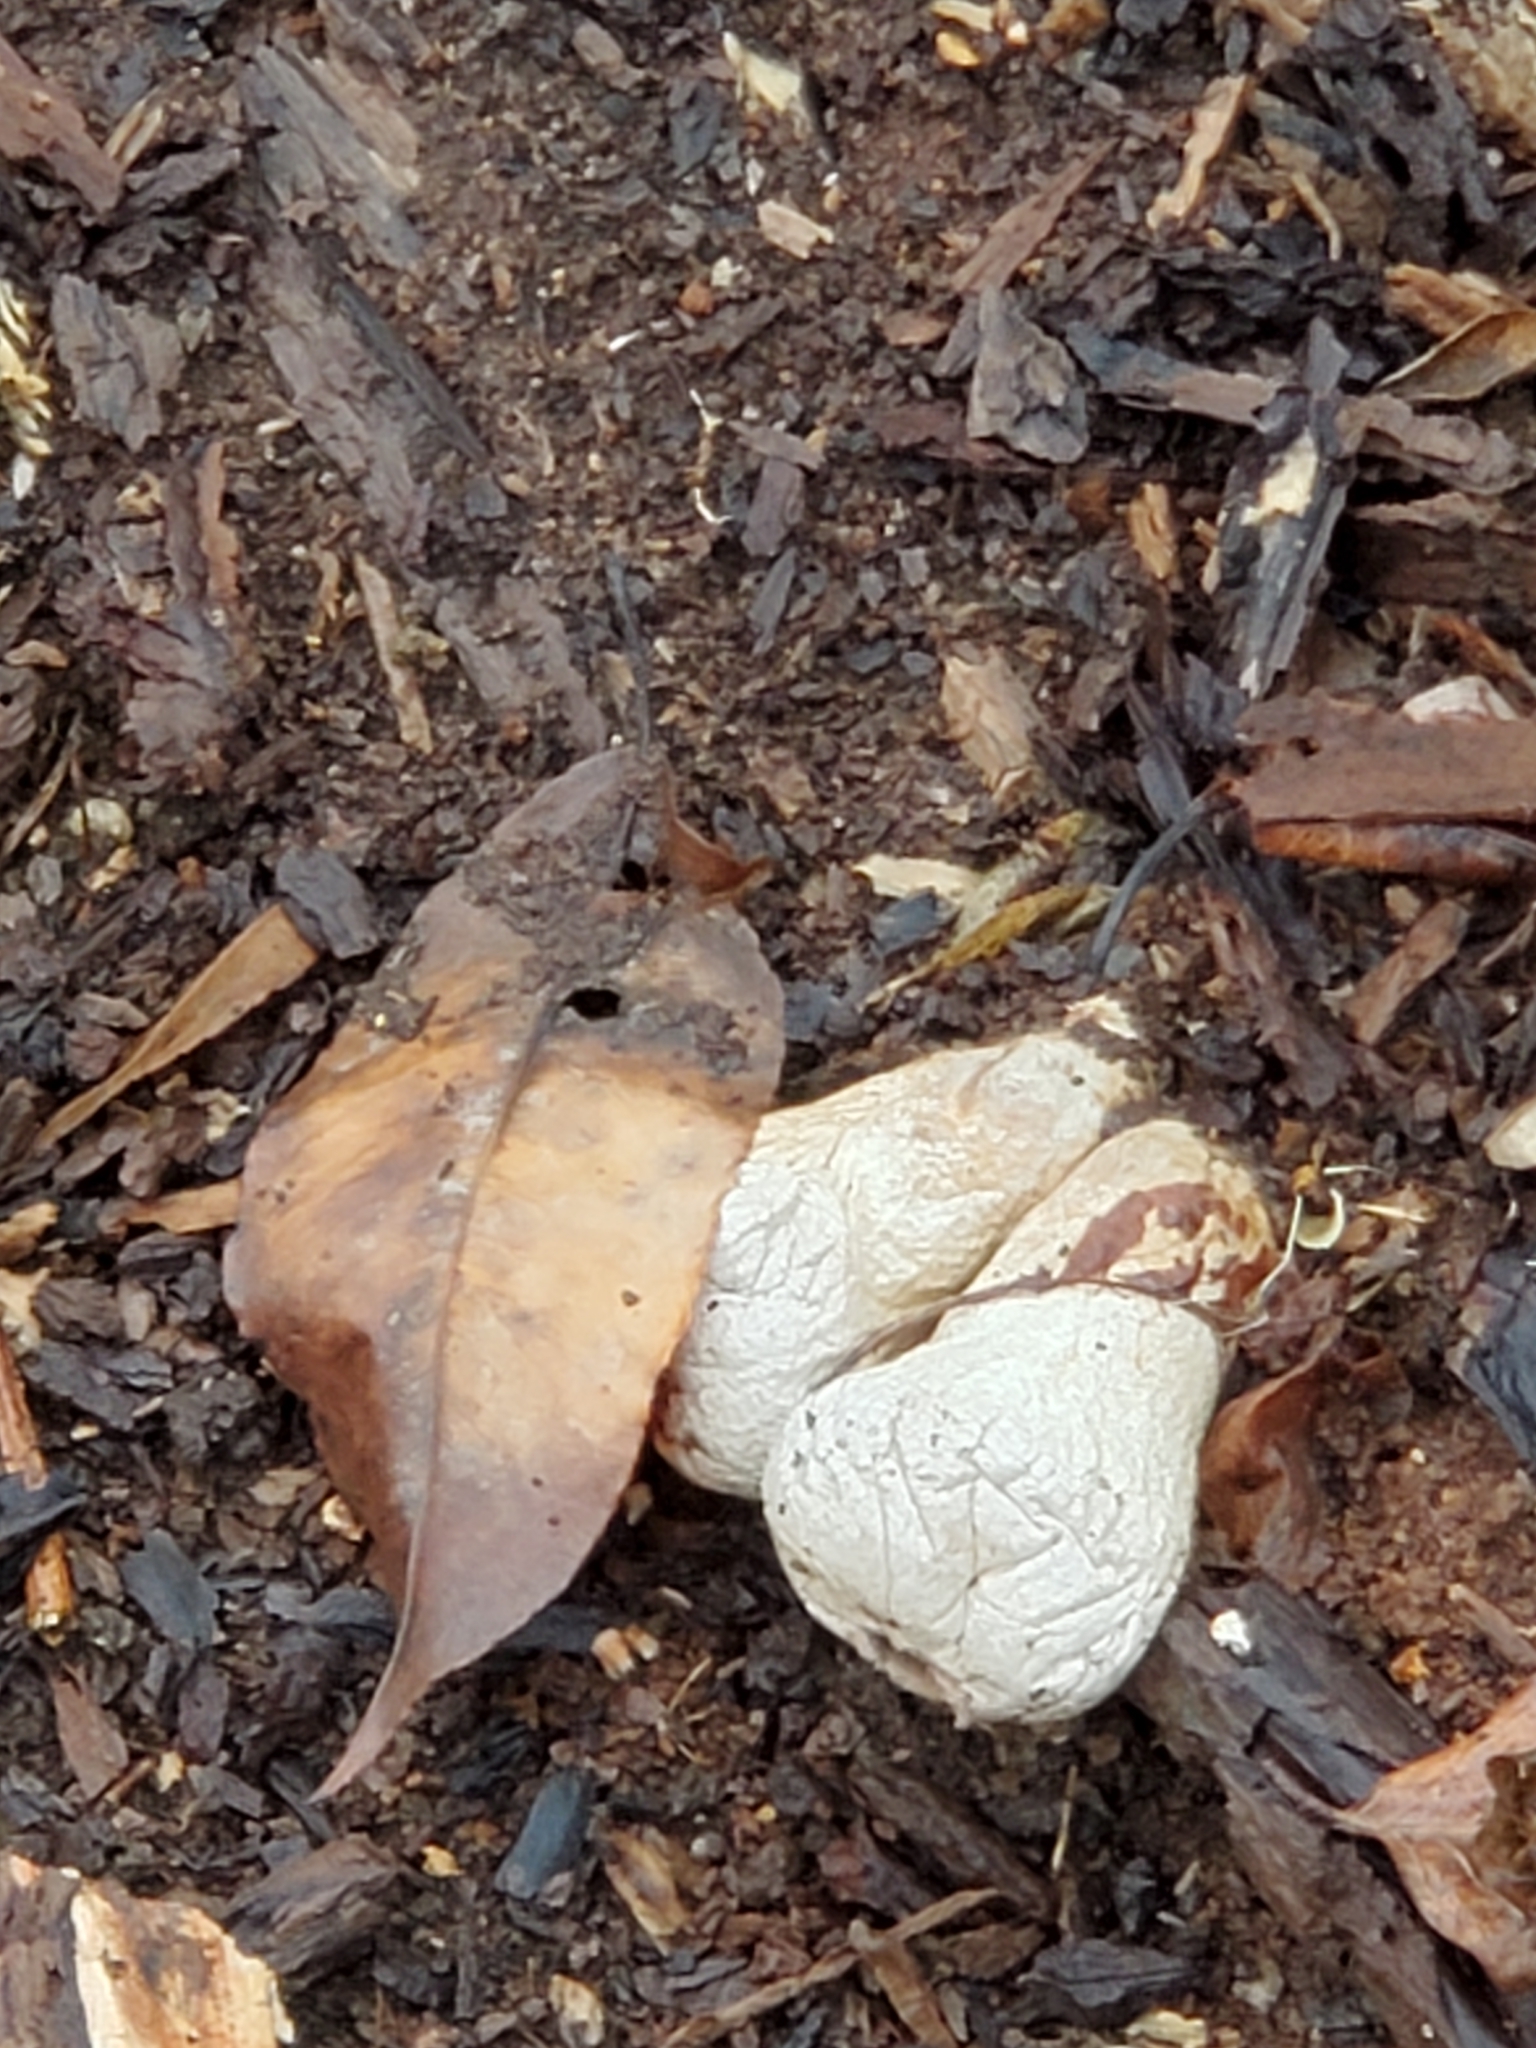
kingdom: Fungi
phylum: Basidiomycota
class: Agaricomycetes
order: Agaricales
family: Lycoperdaceae
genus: Apioperdon
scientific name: Apioperdon pyriforme
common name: Pear-shaped puffball
